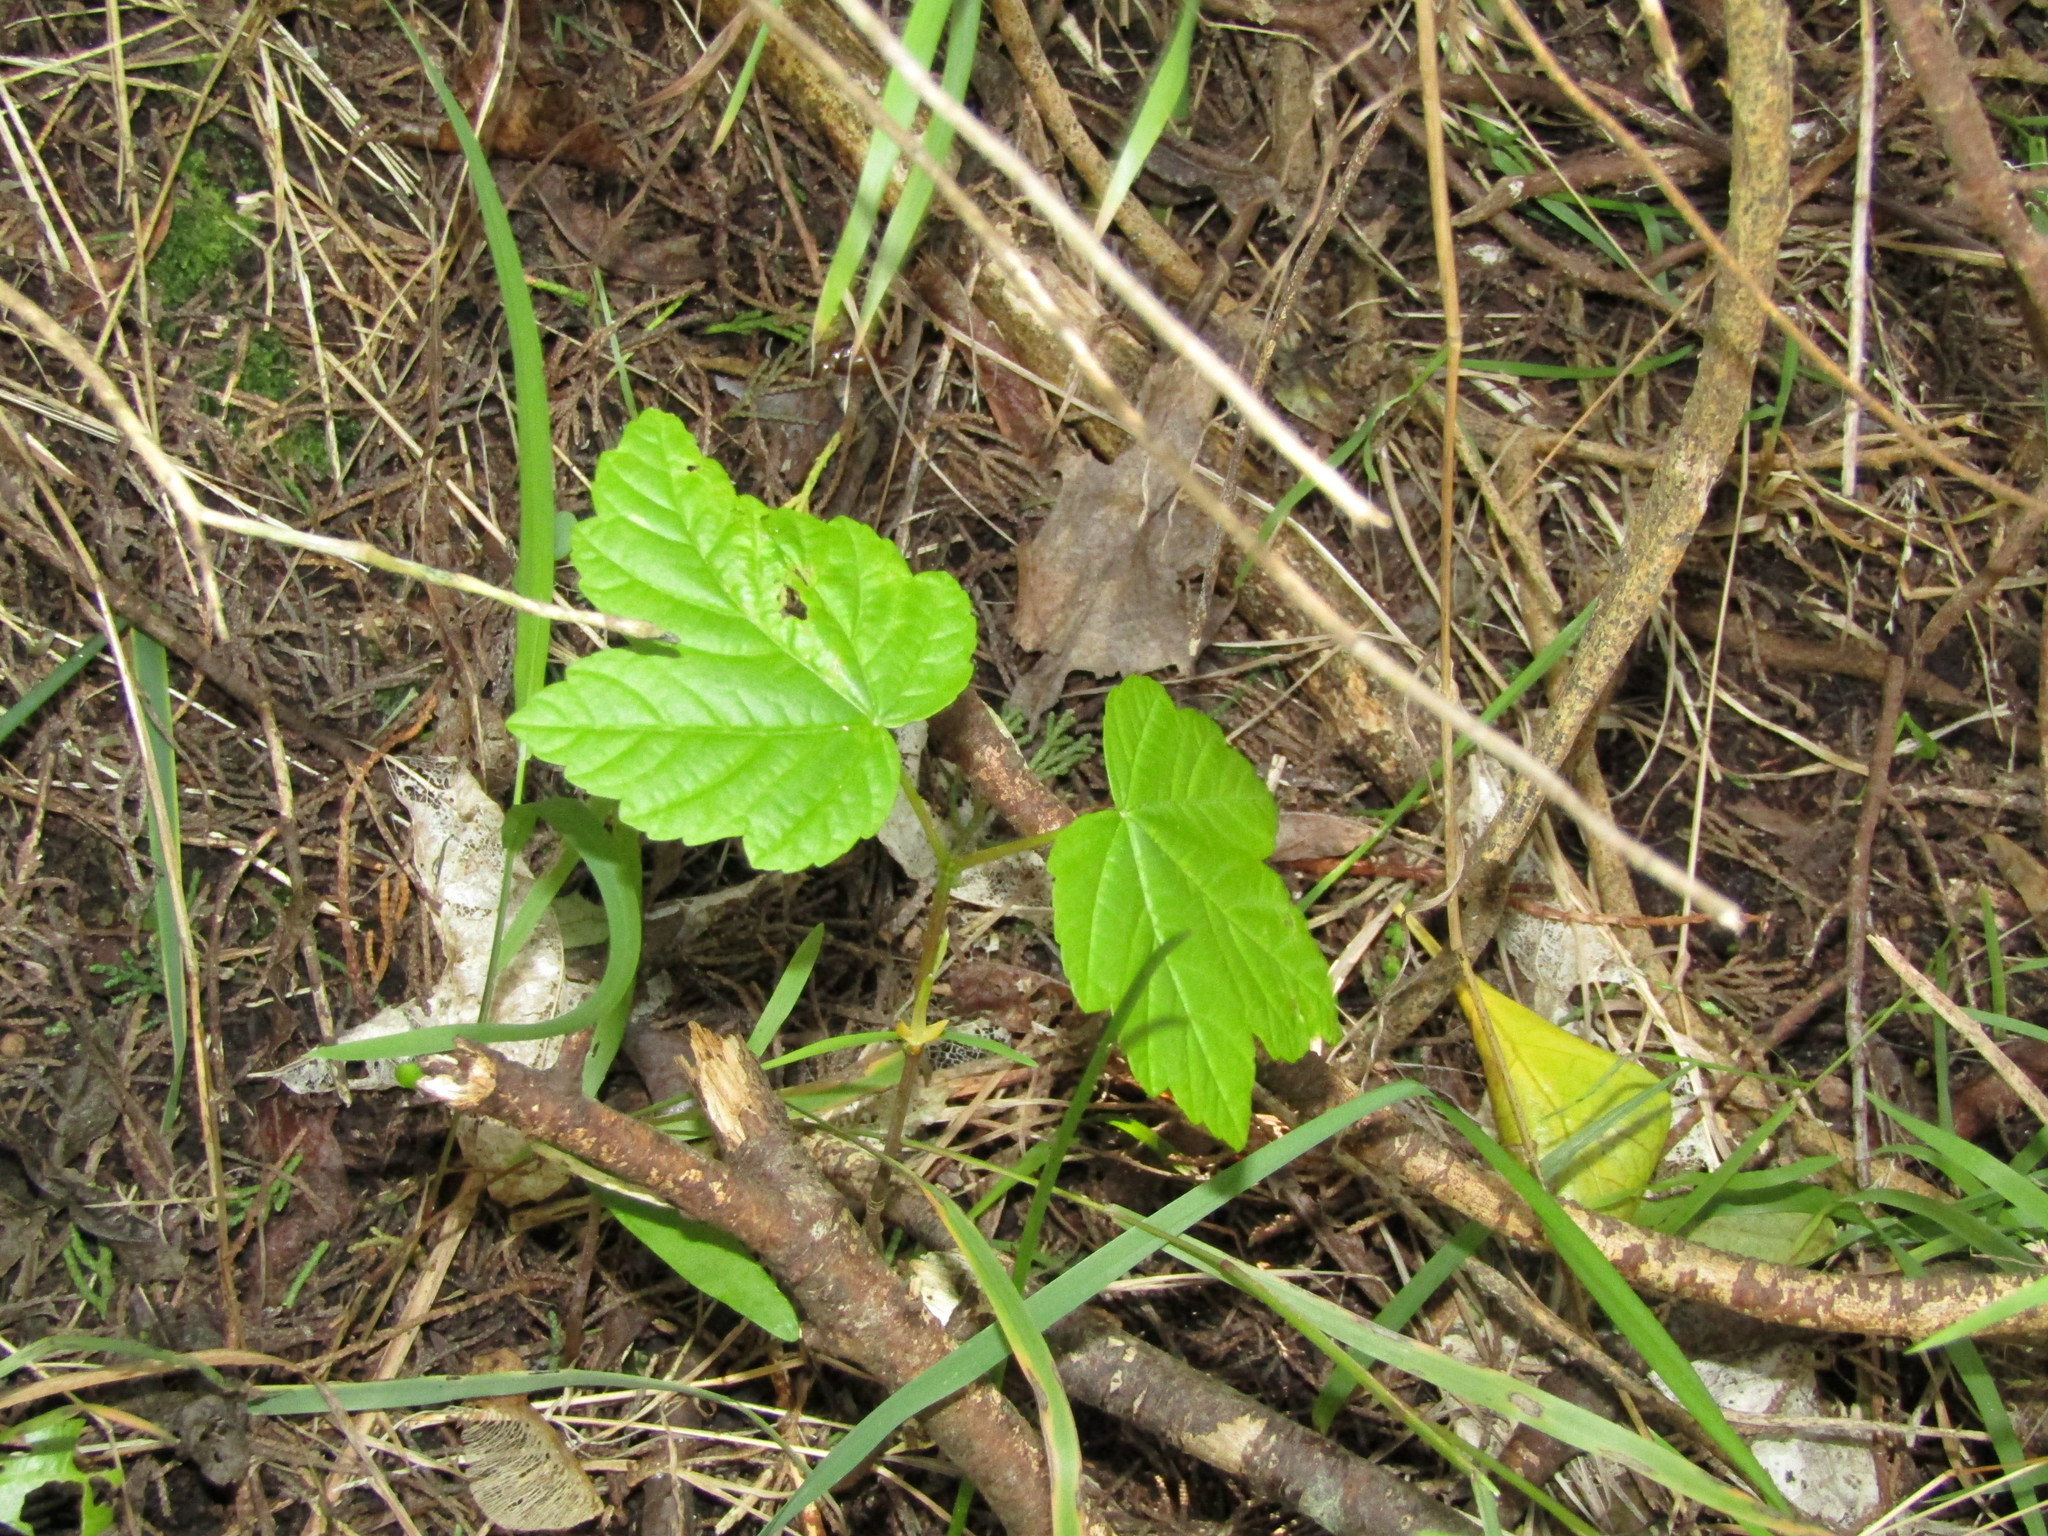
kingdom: Plantae
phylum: Tracheophyta
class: Magnoliopsida
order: Sapindales
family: Sapindaceae
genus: Acer
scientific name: Acer pseudoplatanus
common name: Sycamore
